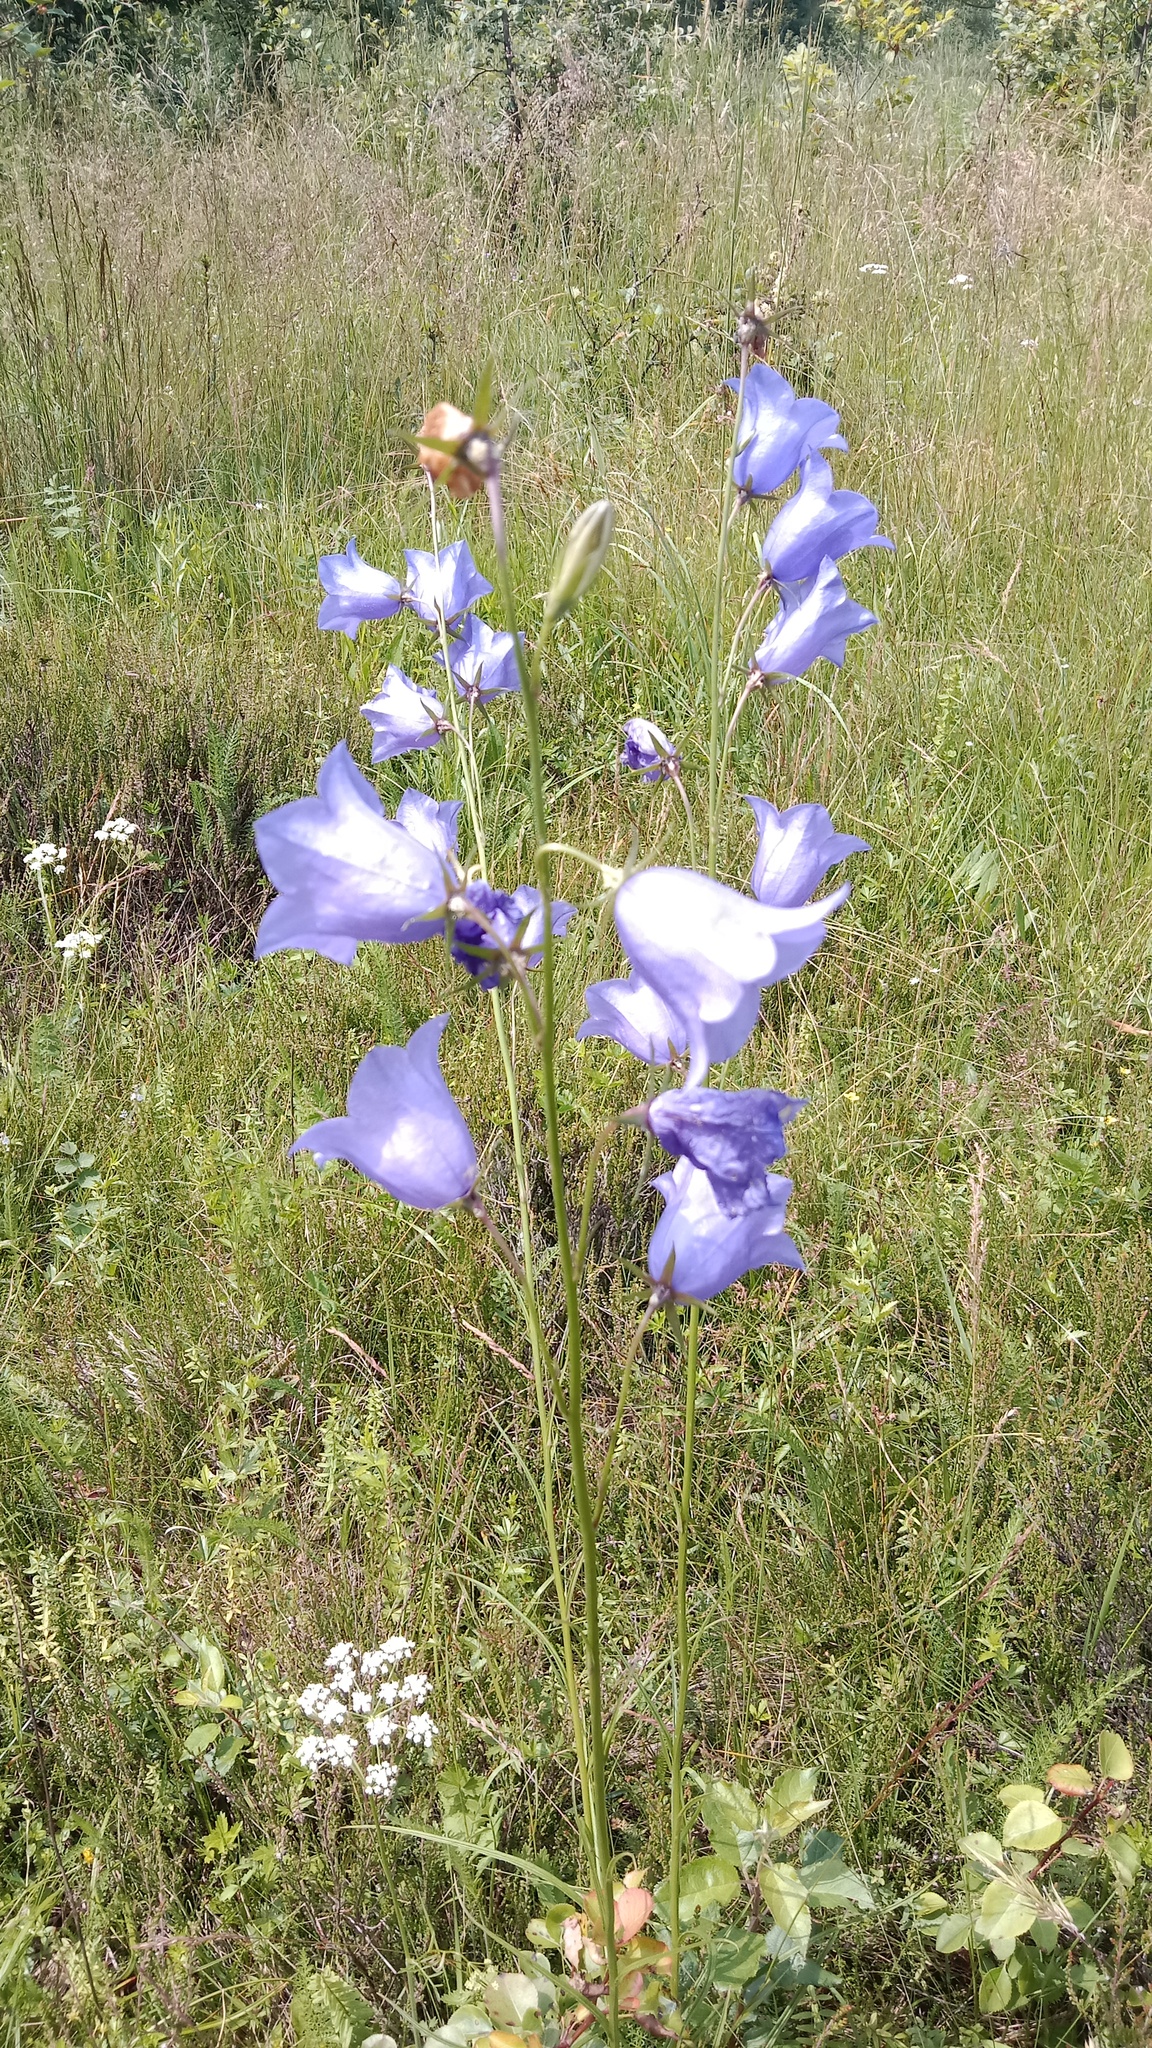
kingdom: Plantae
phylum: Tracheophyta
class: Magnoliopsida
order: Asterales
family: Campanulaceae
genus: Campanula
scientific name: Campanula persicifolia
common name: Peach-leaved bellflower
